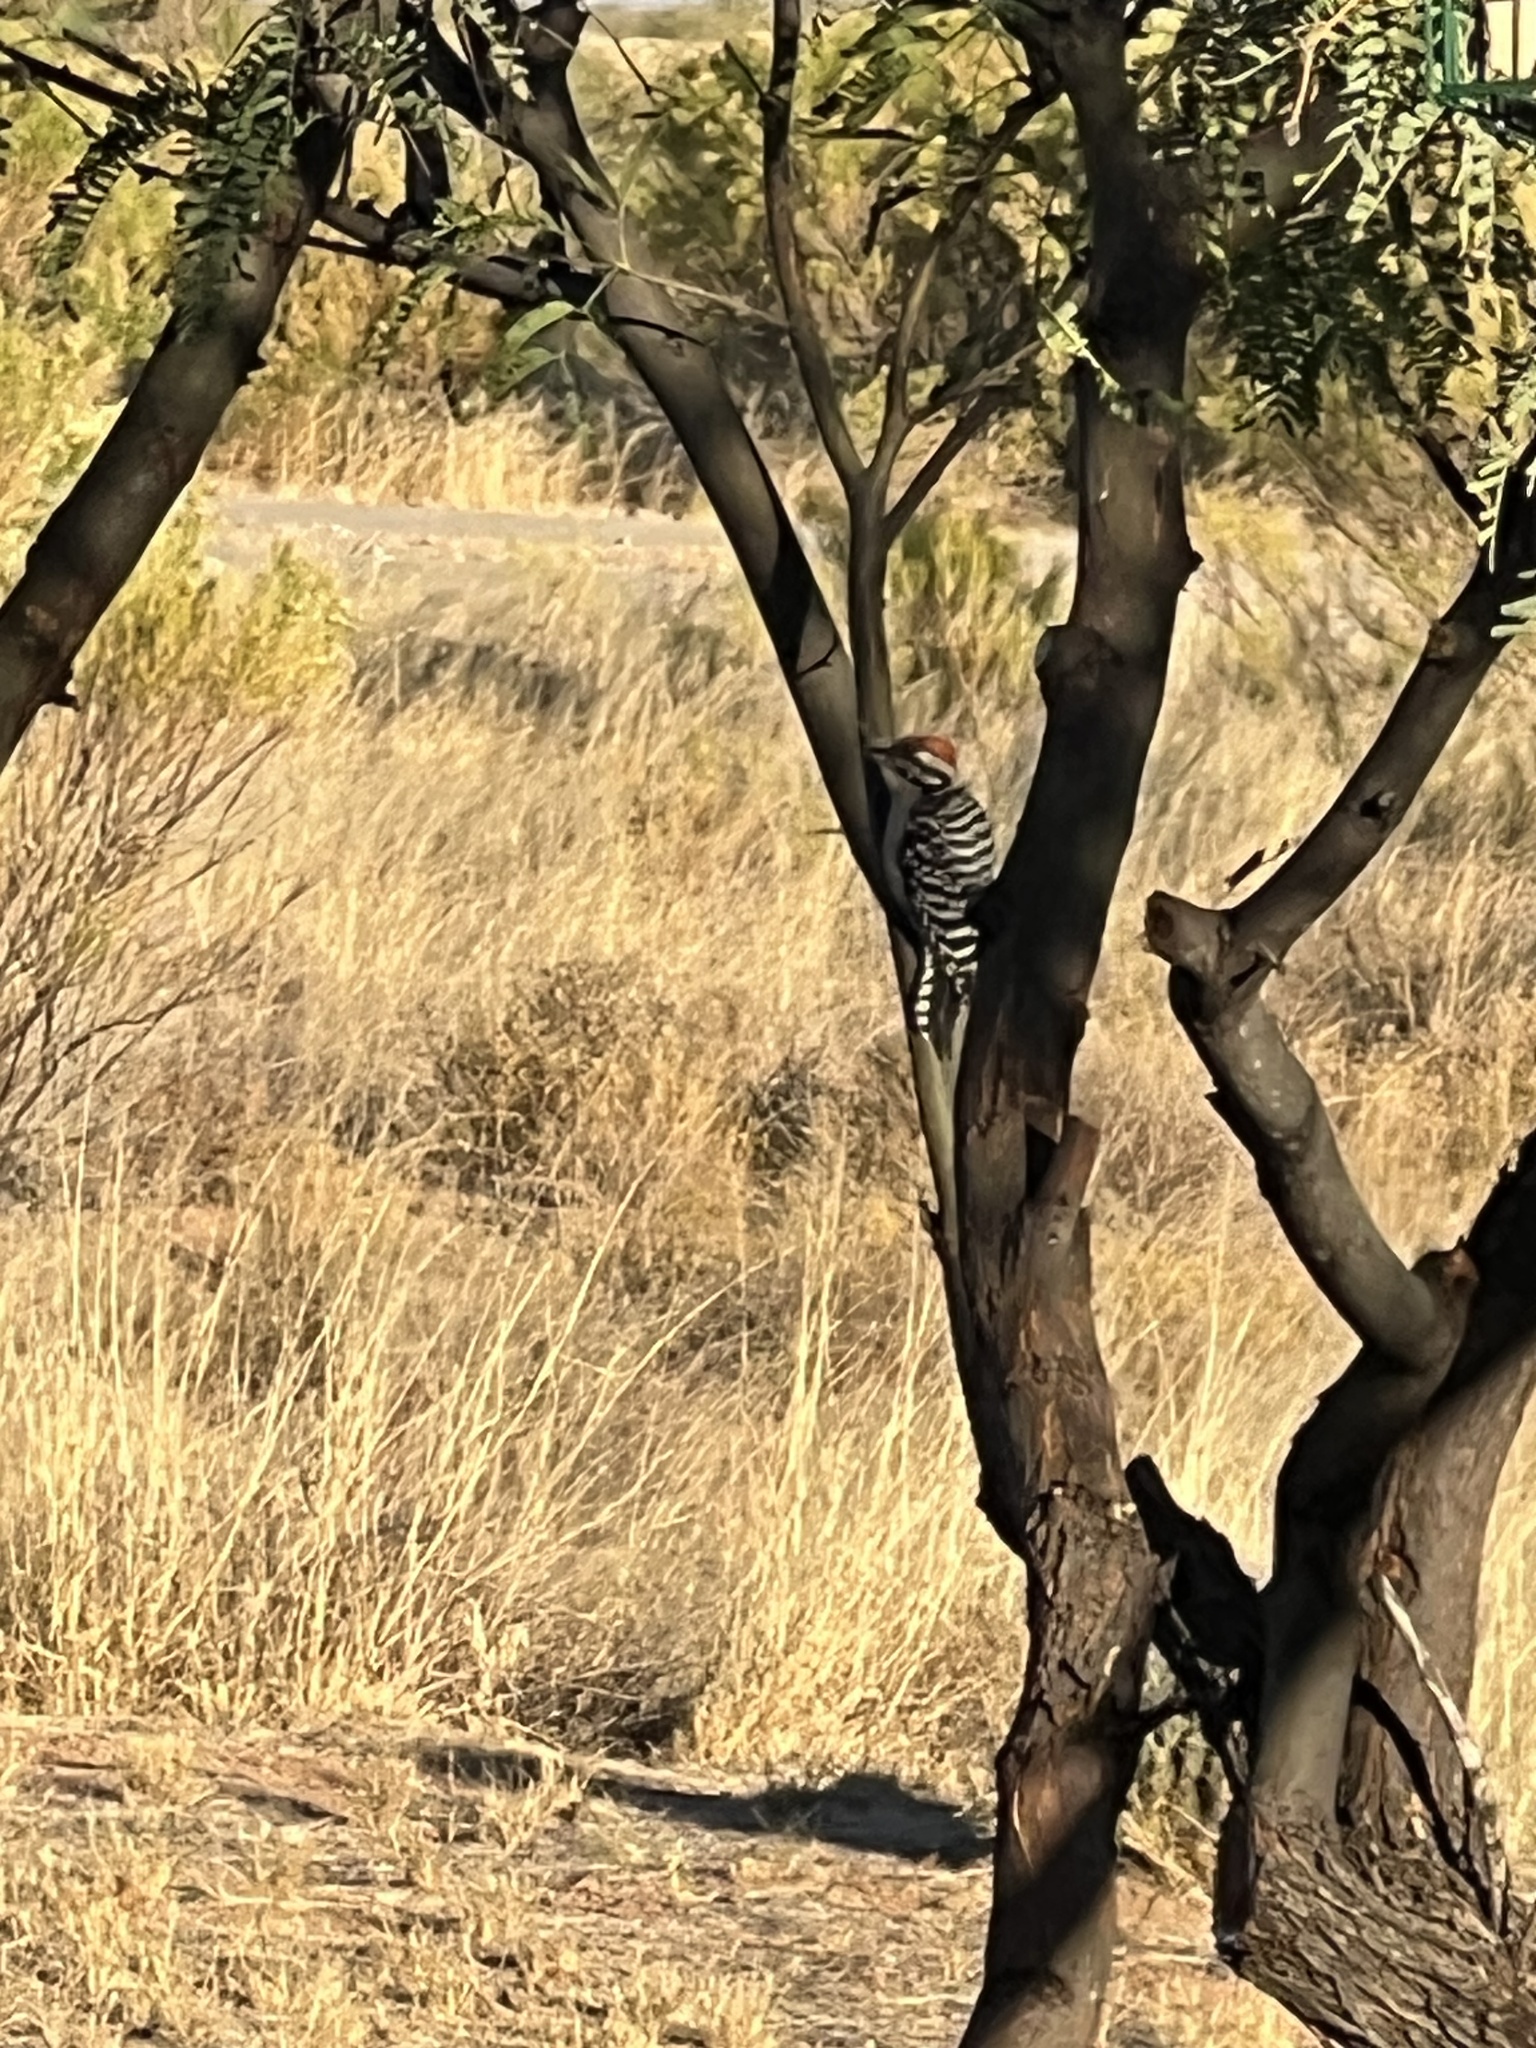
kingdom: Animalia
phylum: Chordata
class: Aves
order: Piciformes
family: Picidae
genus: Dryobates
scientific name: Dryobates scalaris
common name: Ladder-backed woodpecker
